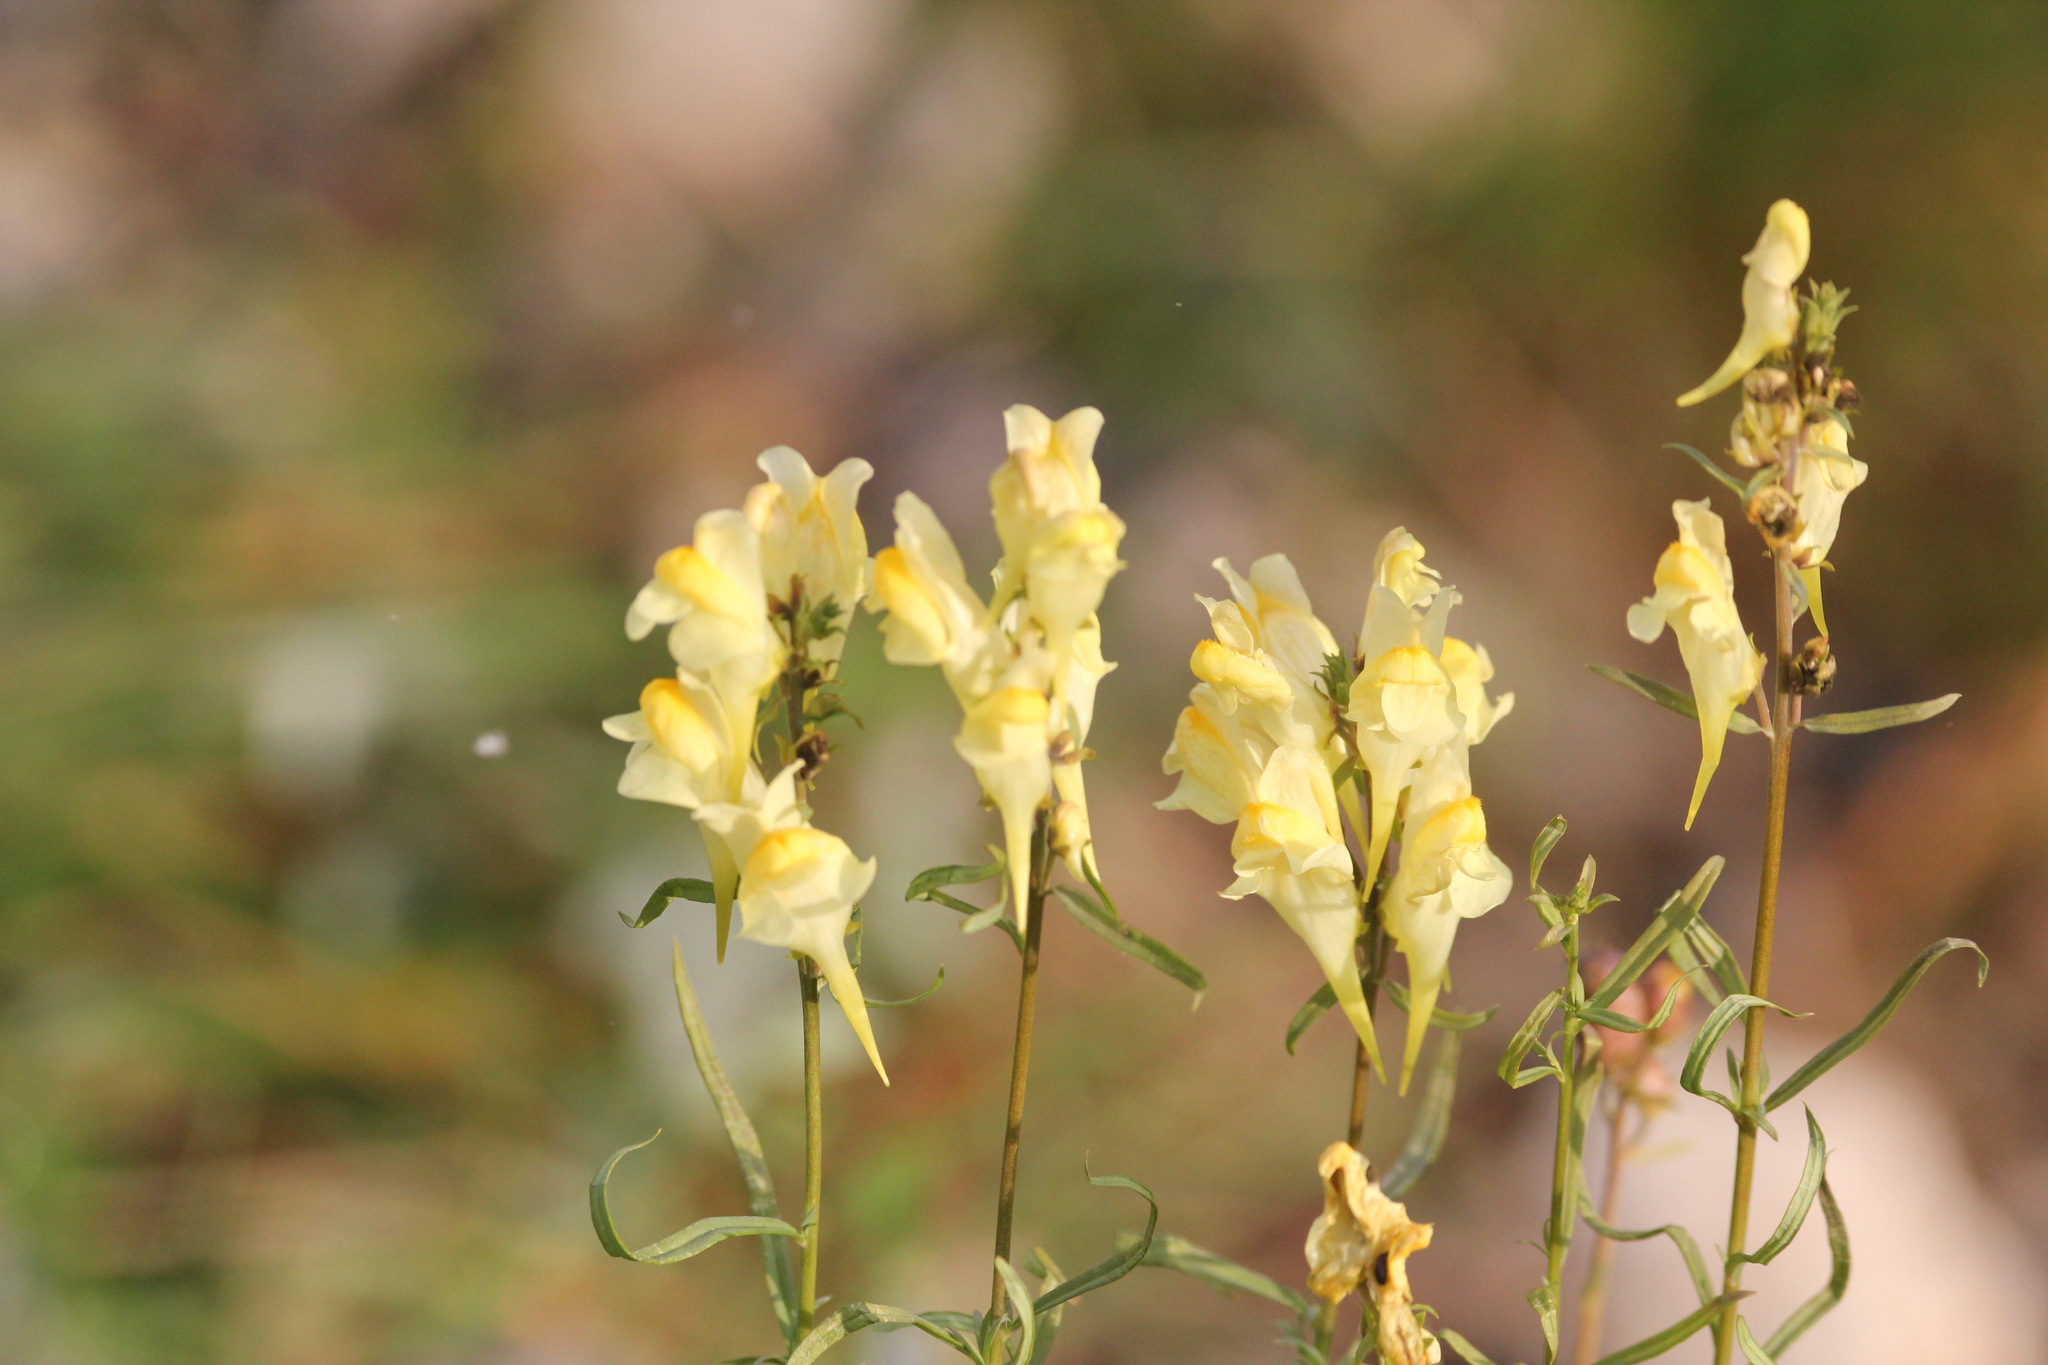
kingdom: Plantae
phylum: Tracheophyta
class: Magnoliopsida
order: Lamiales
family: Plantaginaceae
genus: Linaria
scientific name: Linaria vulgaris
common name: Butter and eggs
